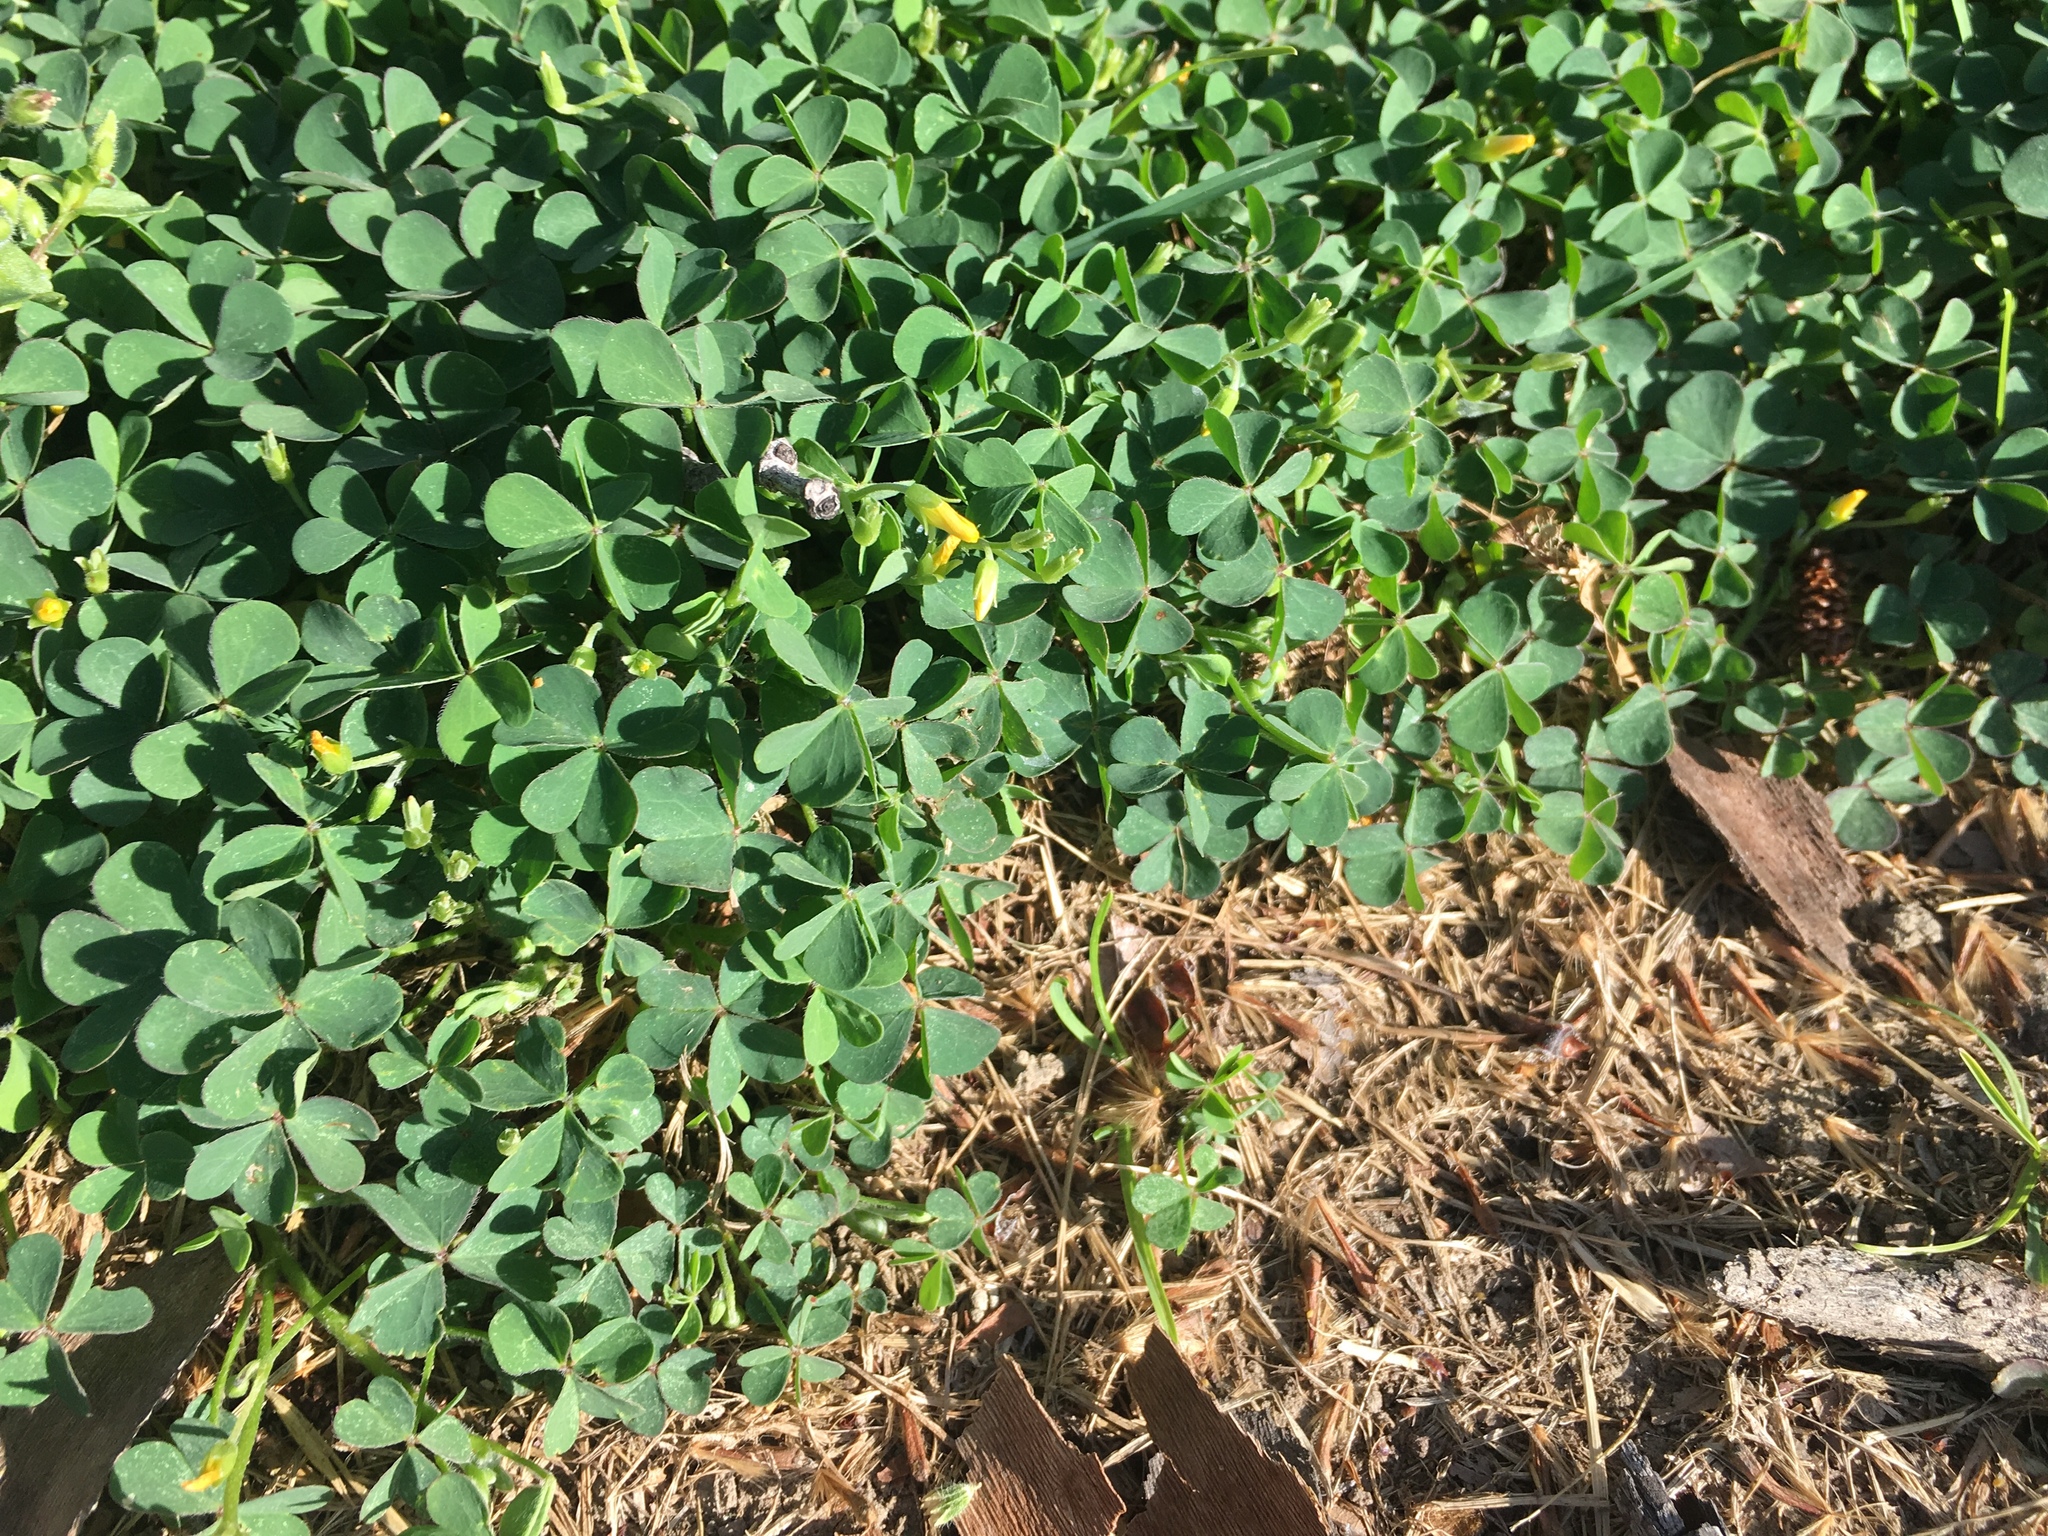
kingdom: Plantae
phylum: Tracheophyta
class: Magnoliopsida
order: Oxalidales
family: Oxalidaceae
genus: Oxalis
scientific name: Oxalis corniculata
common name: Procumbent yellow-sorrel
